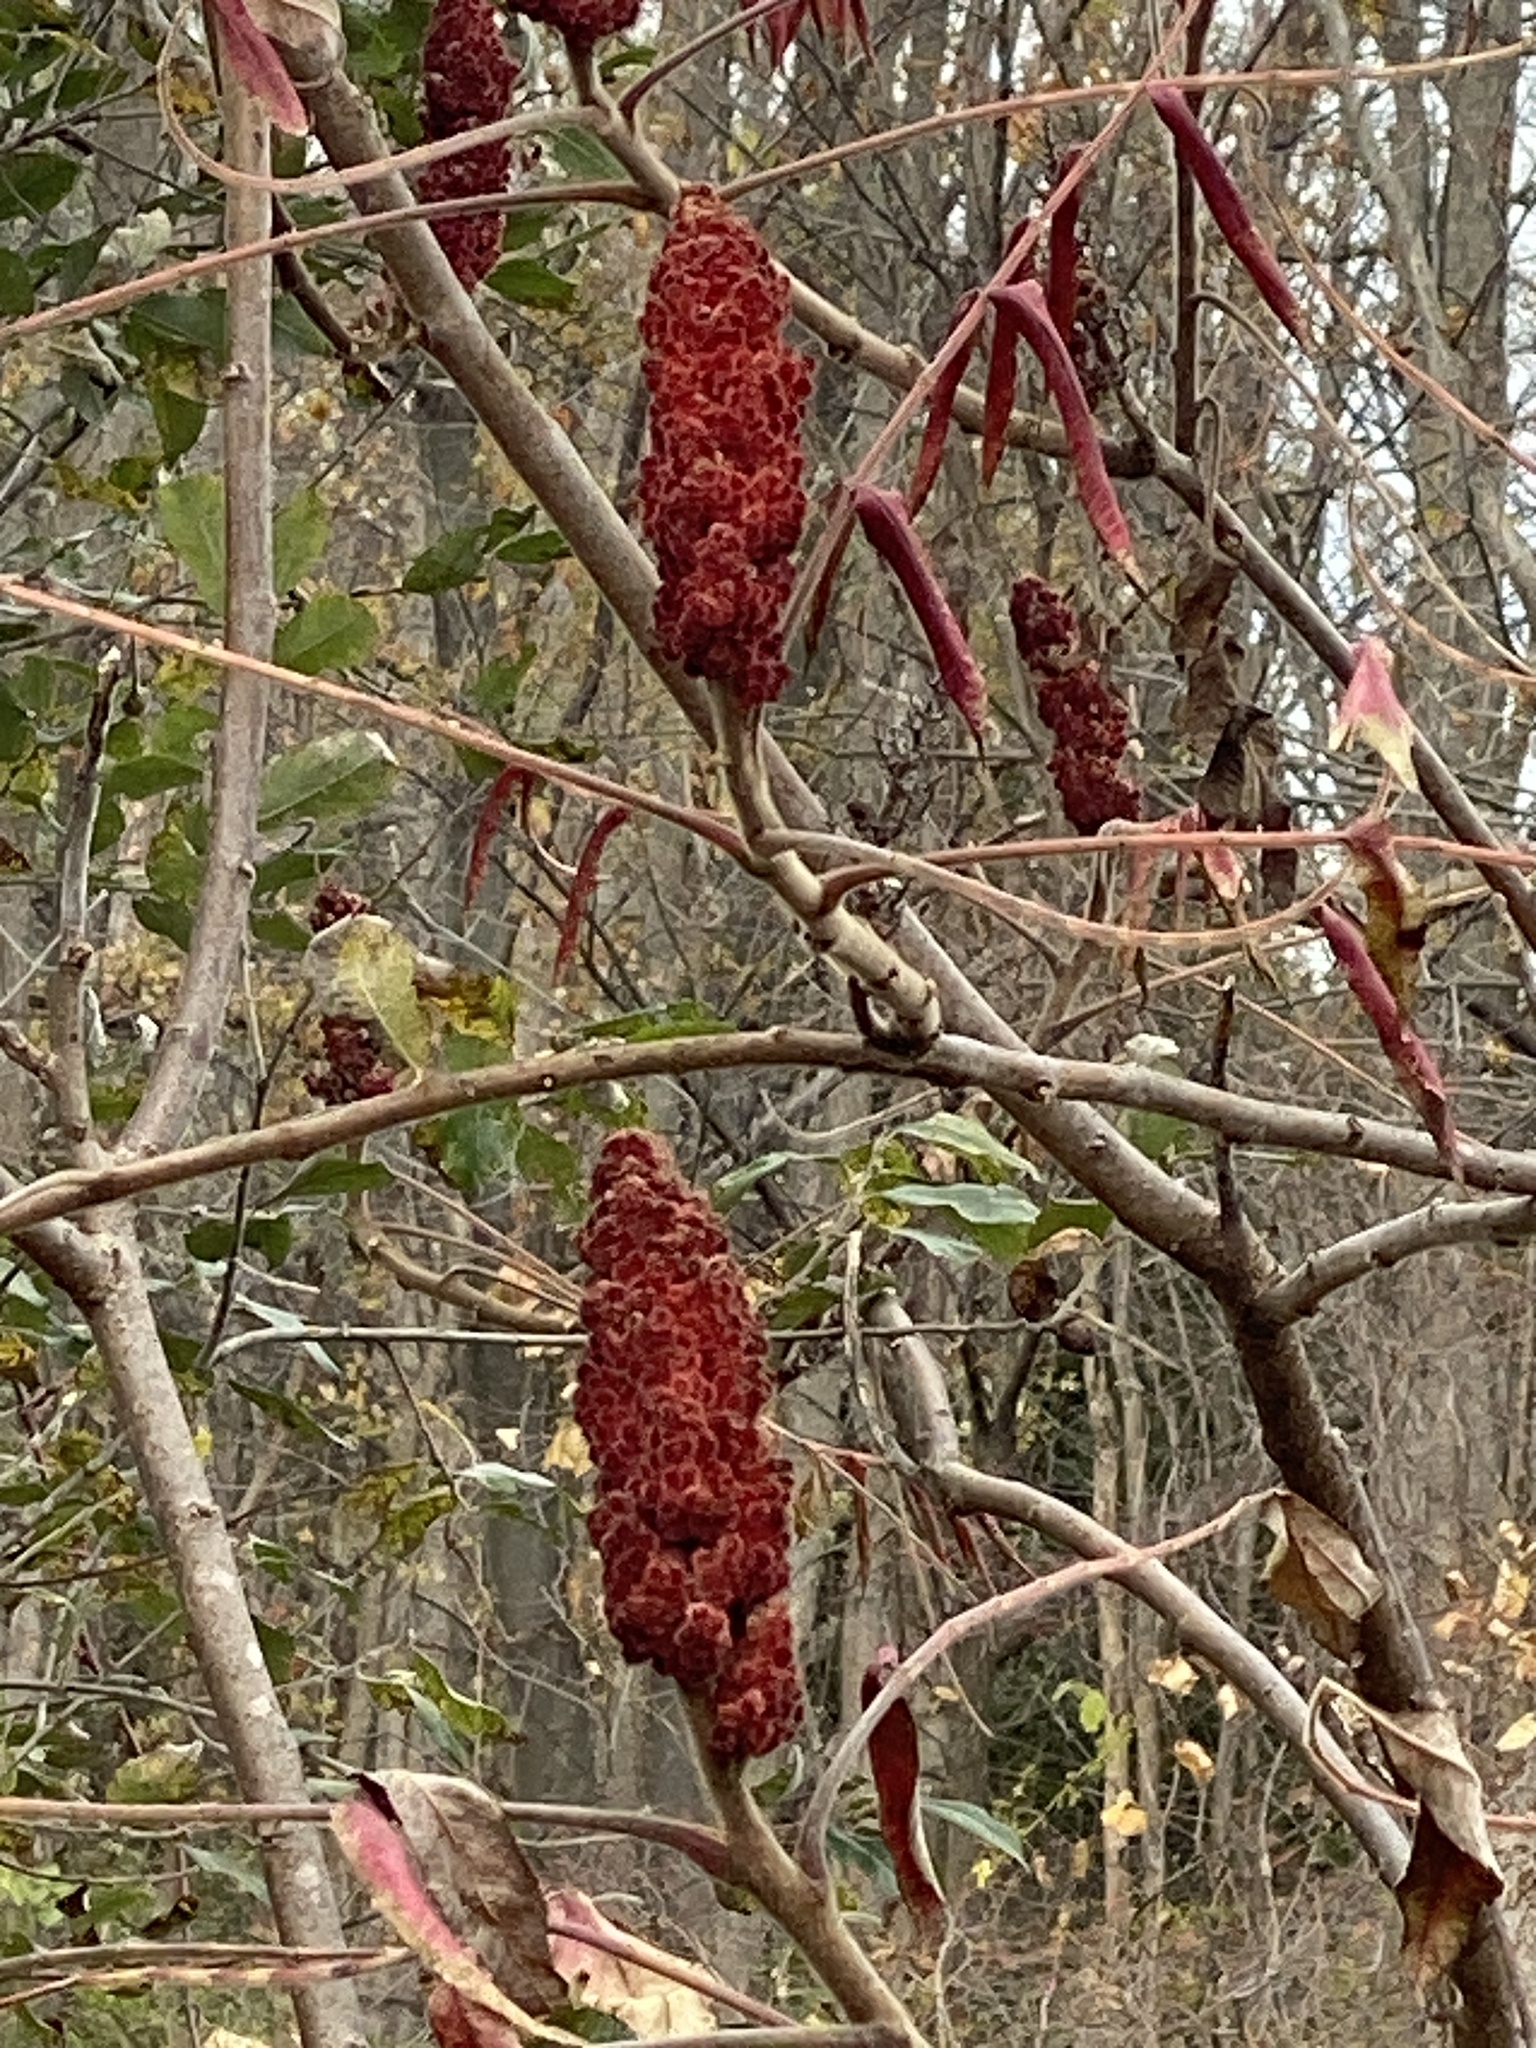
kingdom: Plantae
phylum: Tracheophyta
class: Magnoliopsida
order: Sapindales
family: Anacardiaceae
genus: Rhus
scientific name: Rhus typhina
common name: Staghorn sumac
